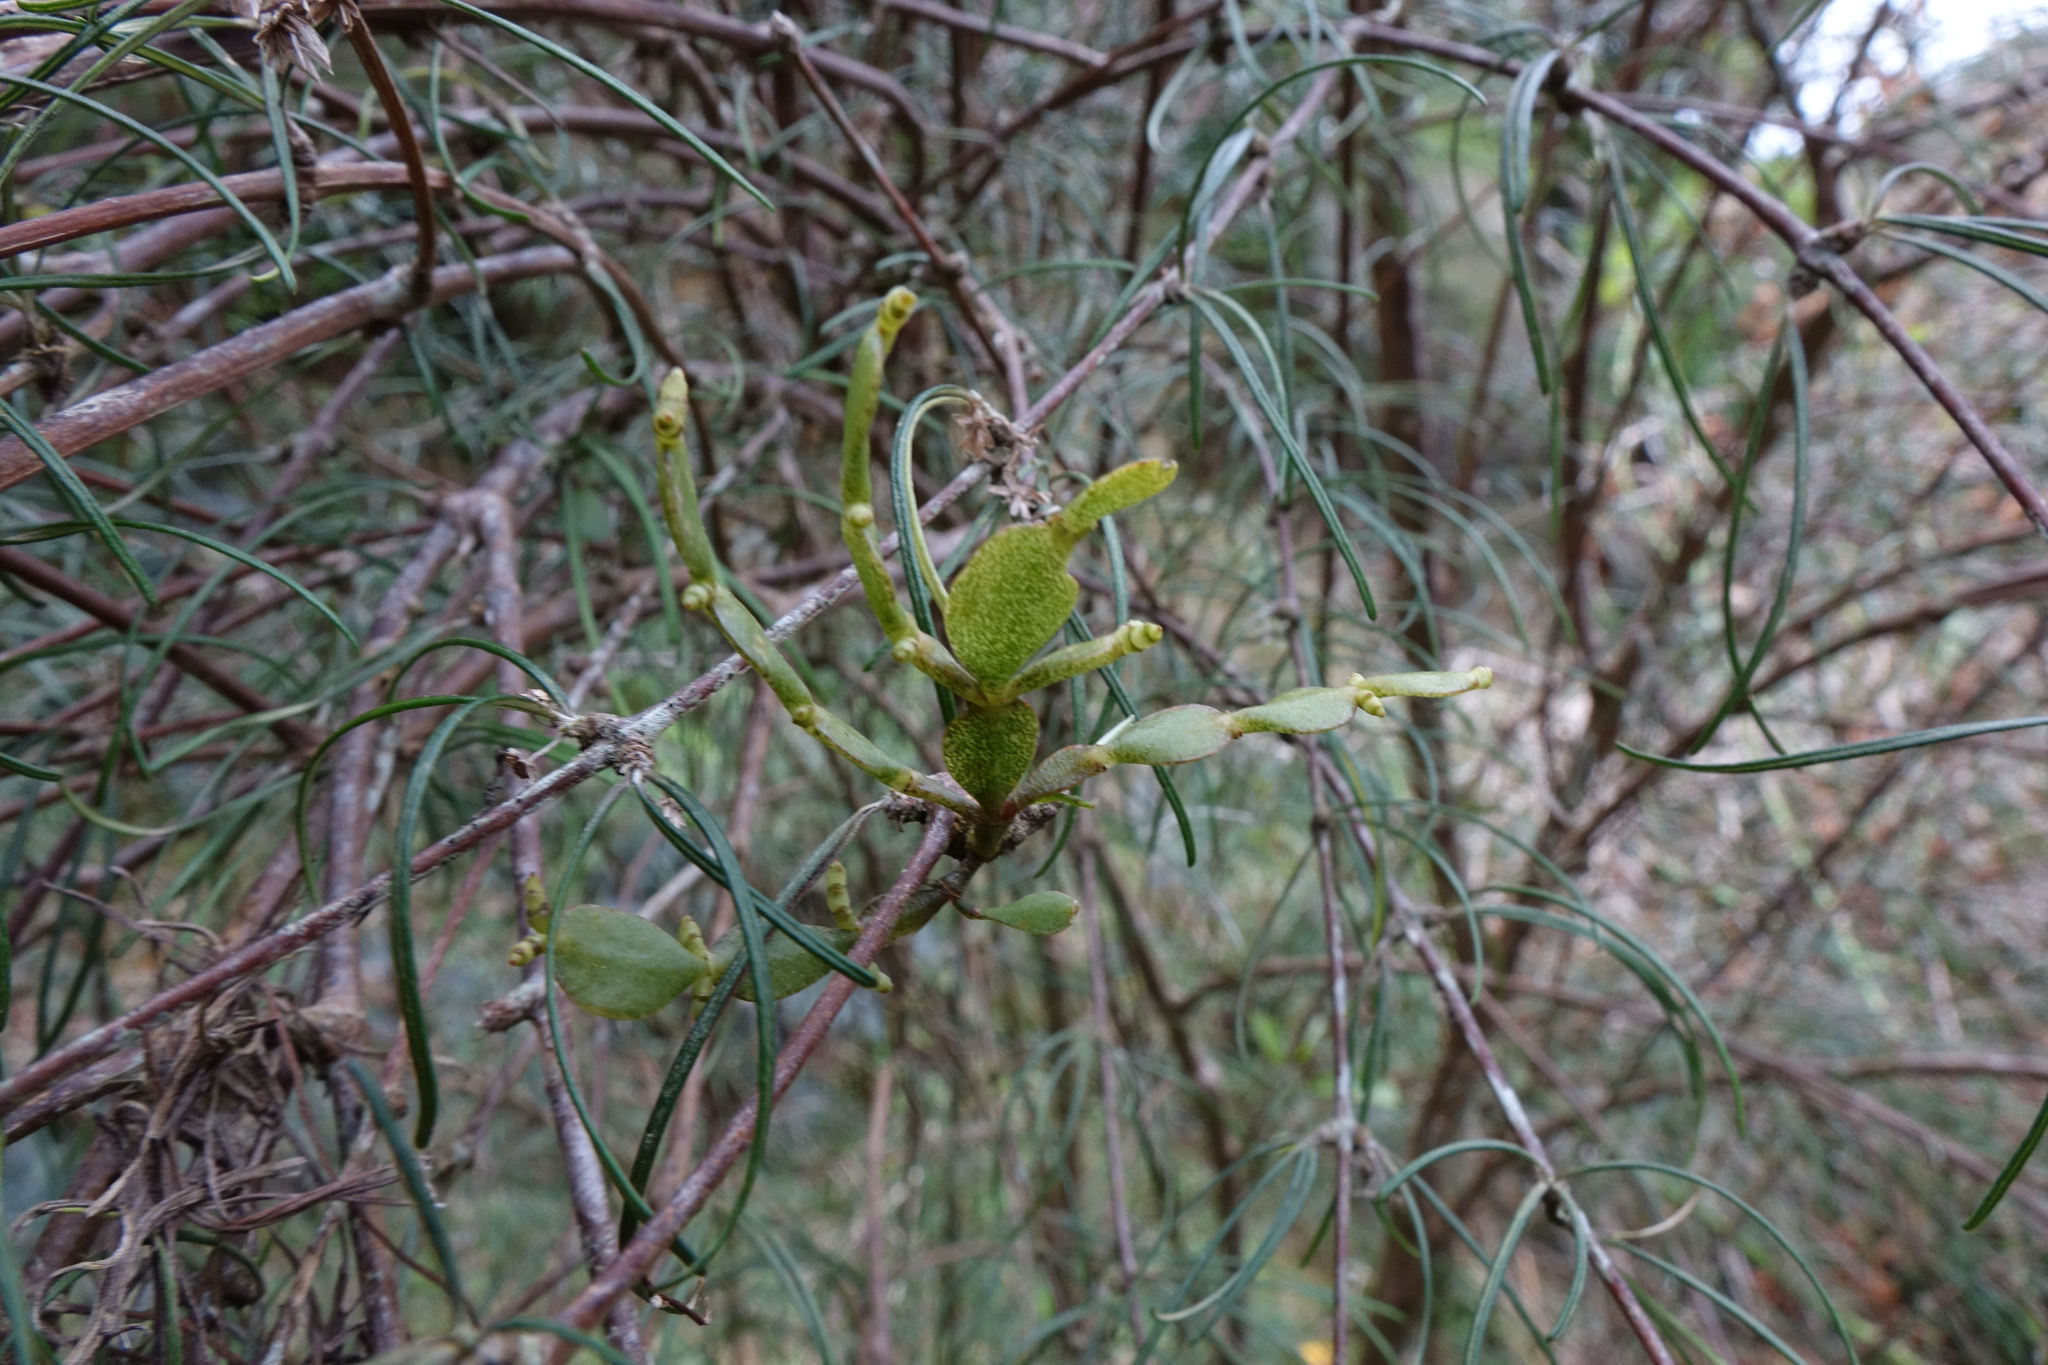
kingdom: Plantae
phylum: Tracheophyta
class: Magnoliopsida
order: Santalales
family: Viscaceae
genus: Korthalsella
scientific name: Korthalsella lindsayi
